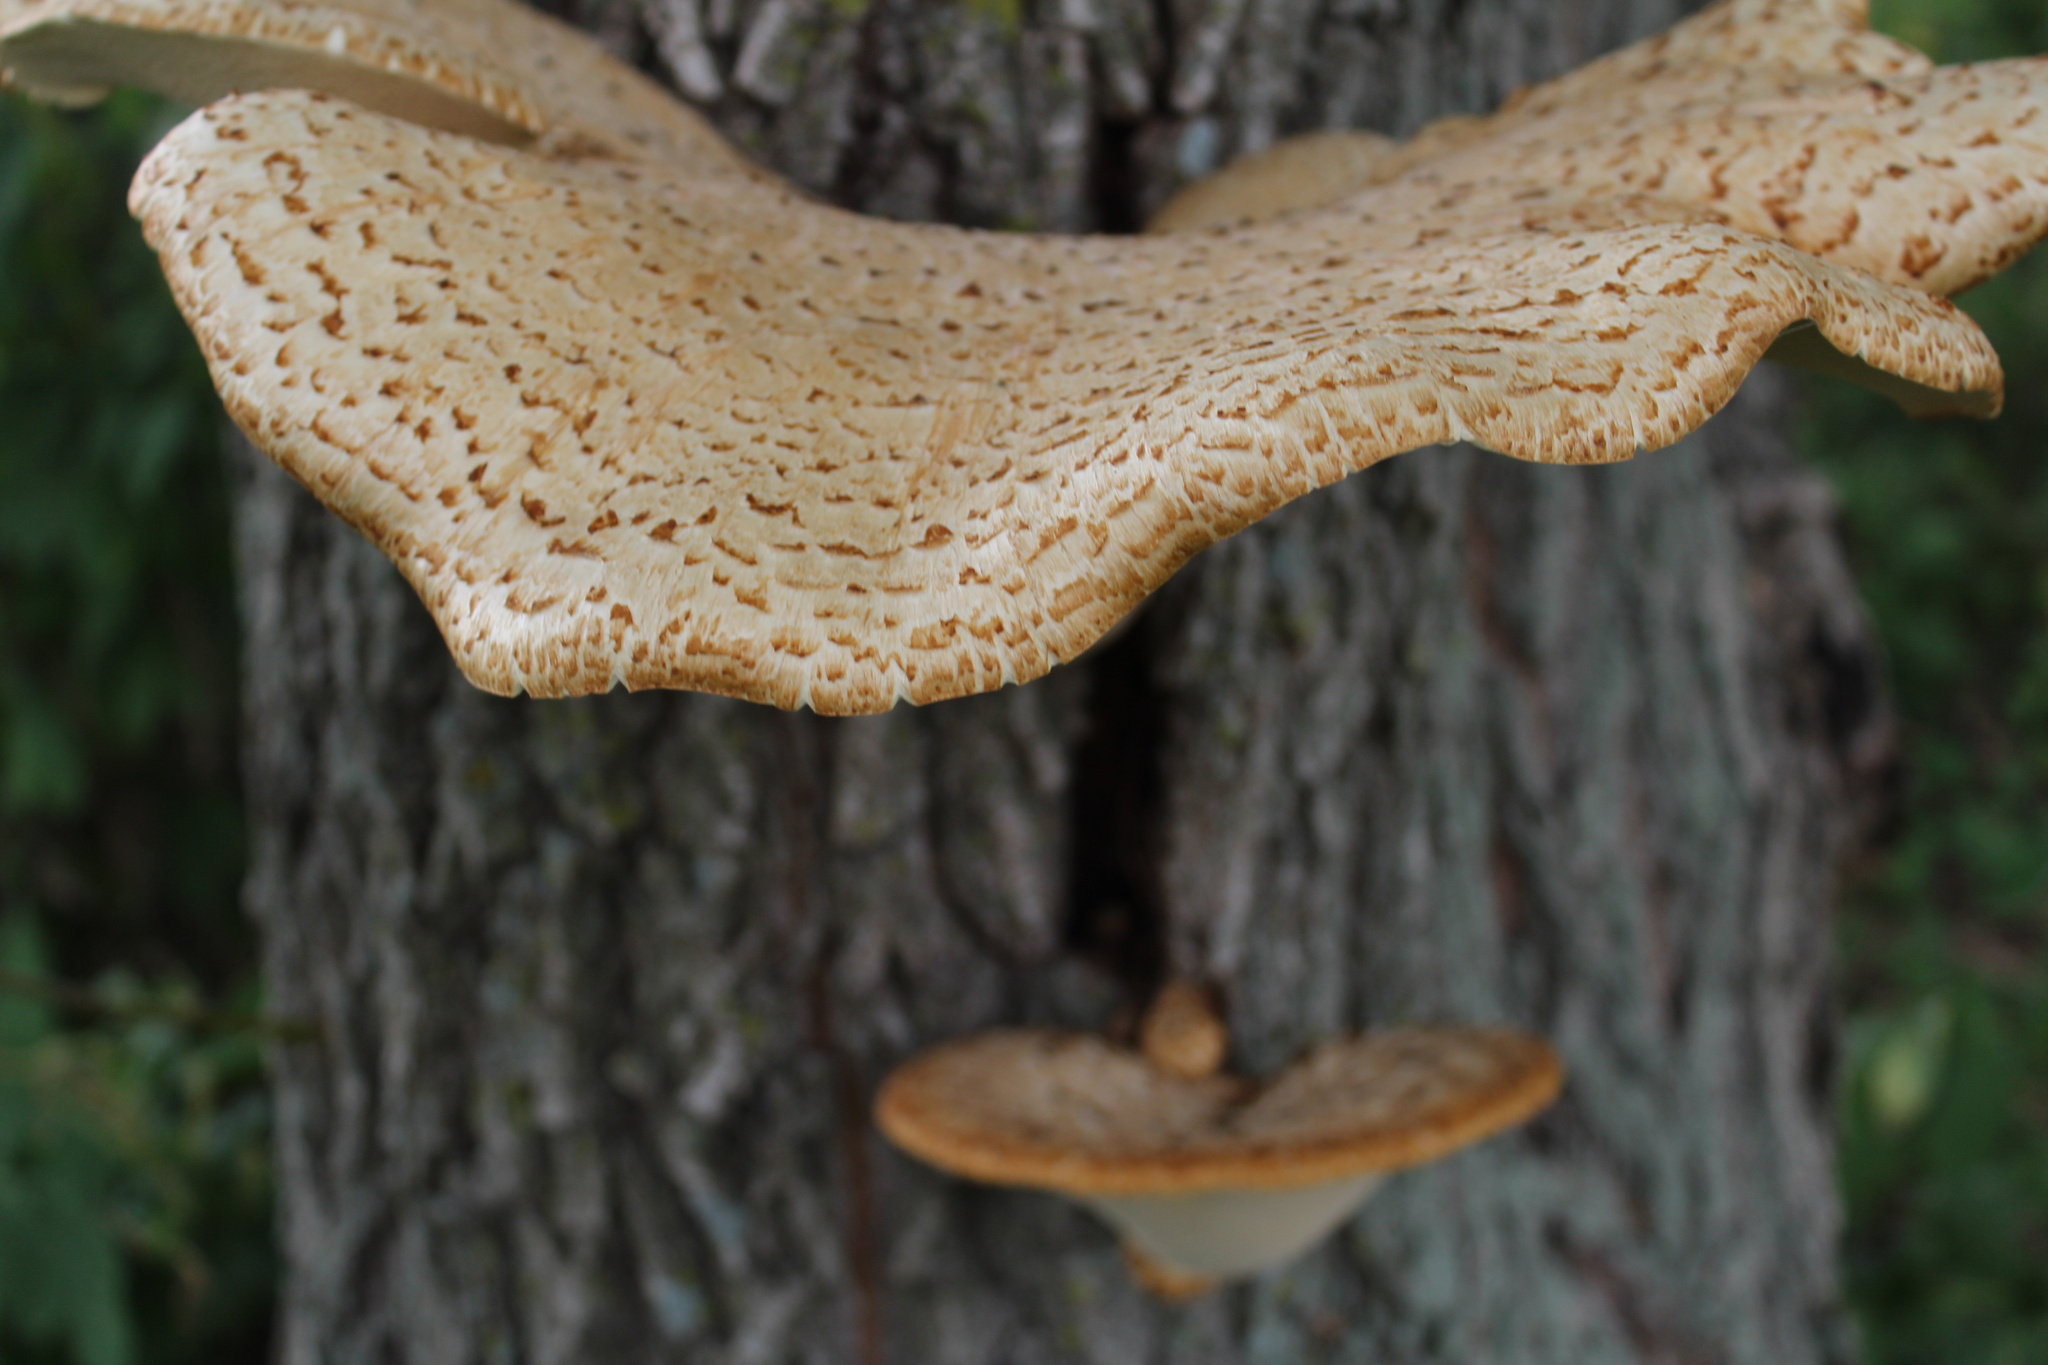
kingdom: Fungi
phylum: Basidiomycota
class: Agaricomycetes
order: Polyporales
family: Polyporaceae
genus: Cerioporus
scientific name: Cerioporus squamosus
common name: Dryad's saddle
